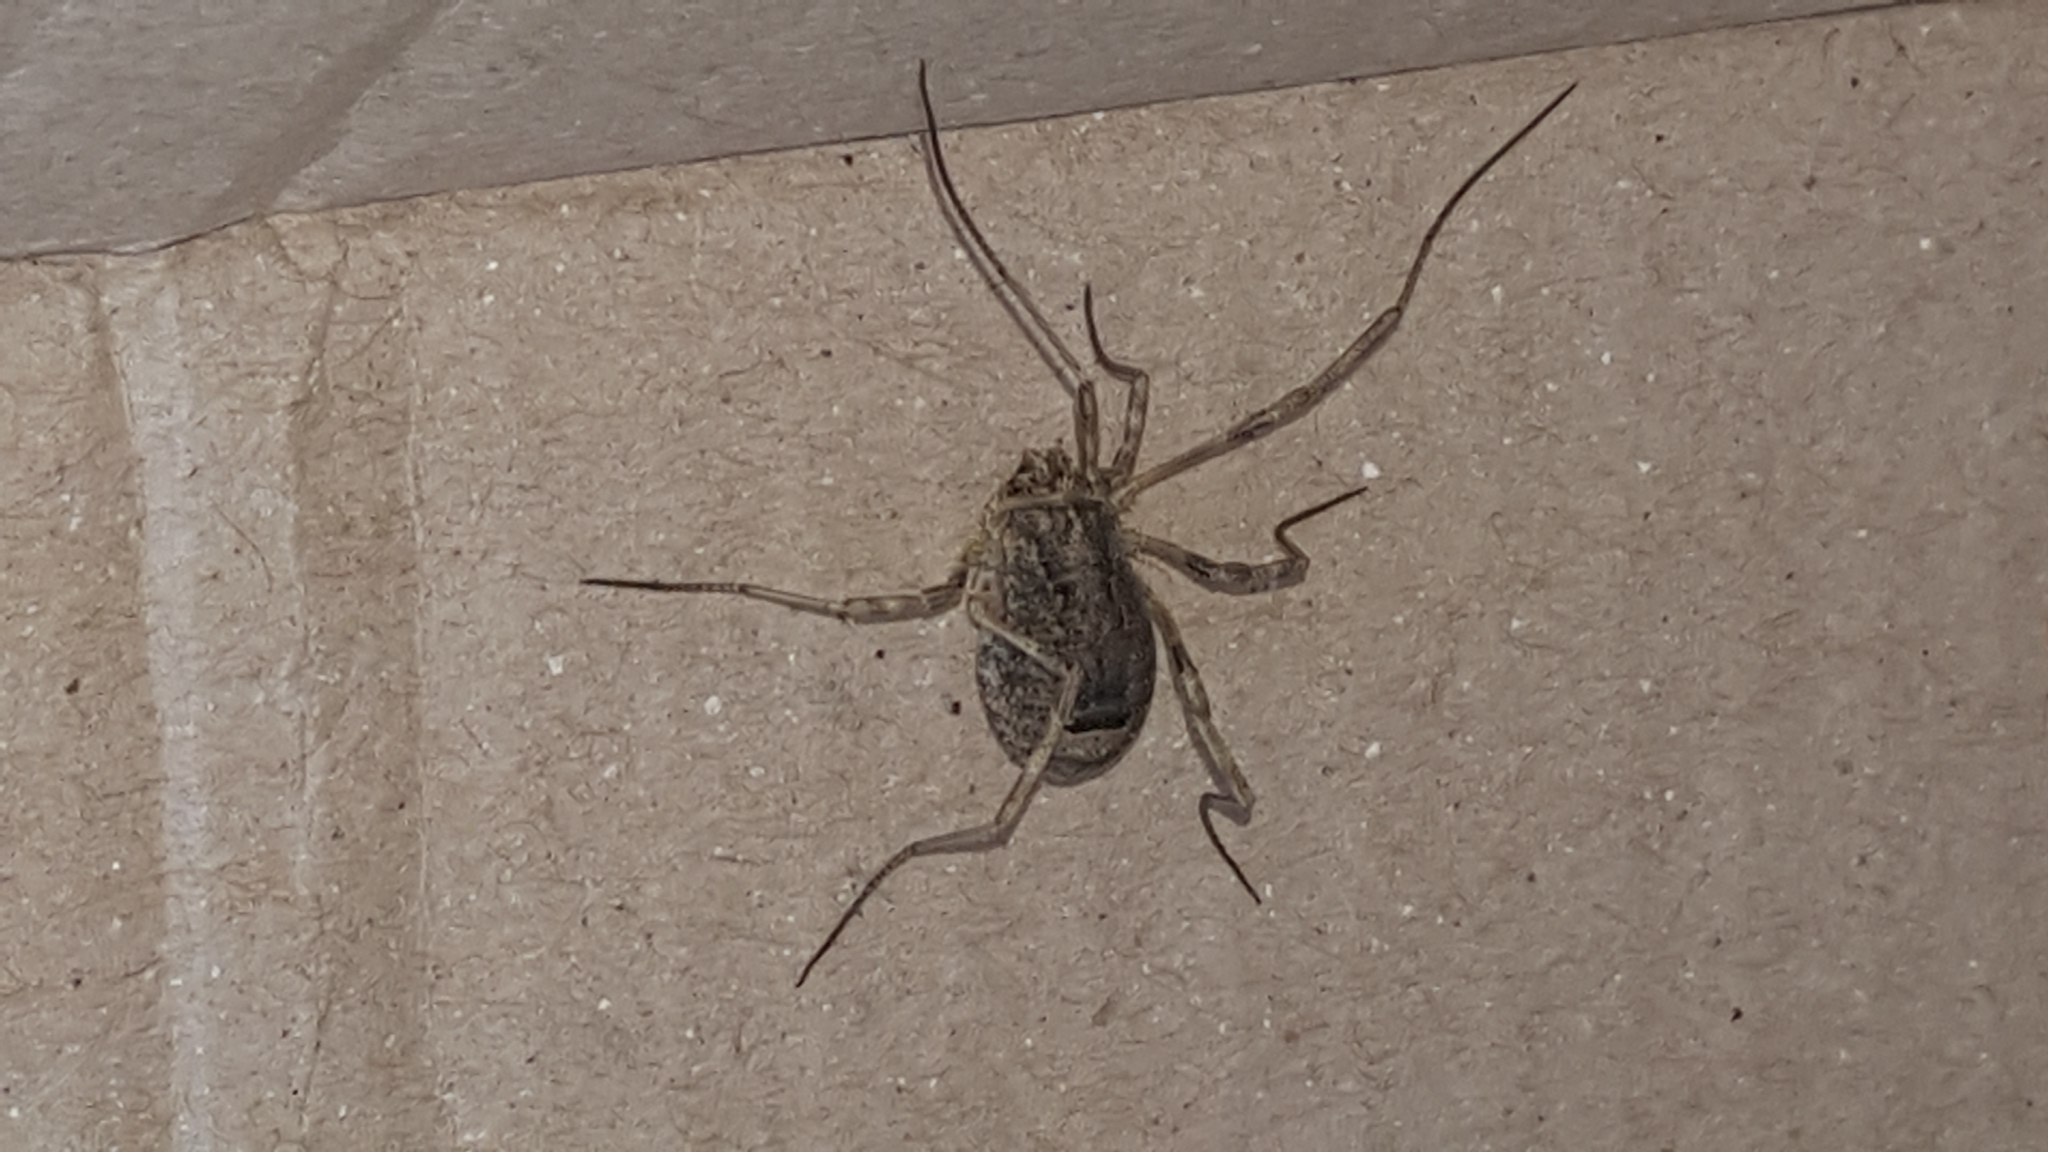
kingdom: Animalia
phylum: Arthropoda
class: Arachnida
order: Opiliones
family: Phalangiidae
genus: Odiellus
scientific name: Odiellus spinosus
